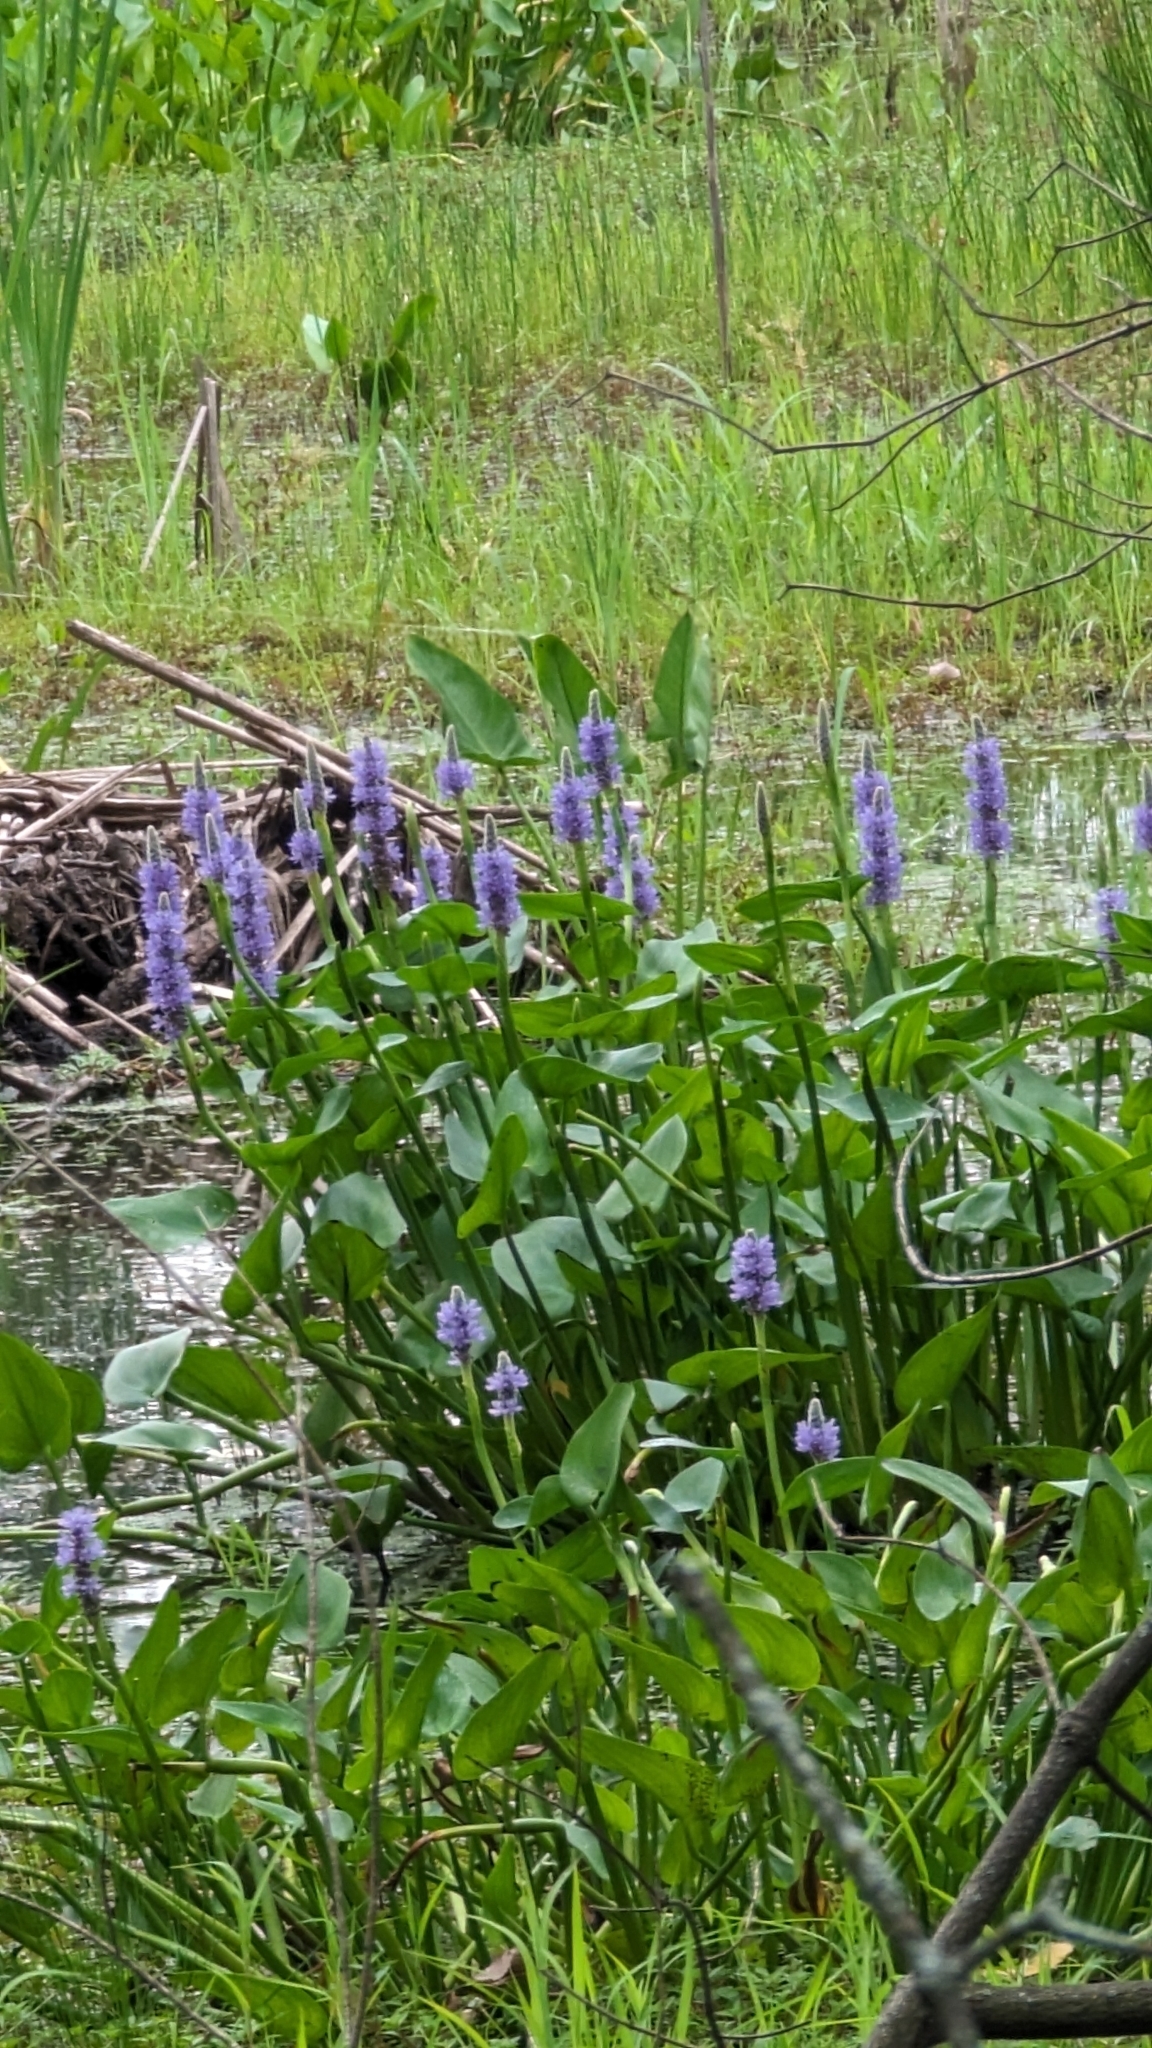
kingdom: Plantae
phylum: Tracheophyta
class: Liliopsida
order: Commelinales
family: Pontederiaceae
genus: Pontederia
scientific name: Pontederia cordata
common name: Pickerelweed
